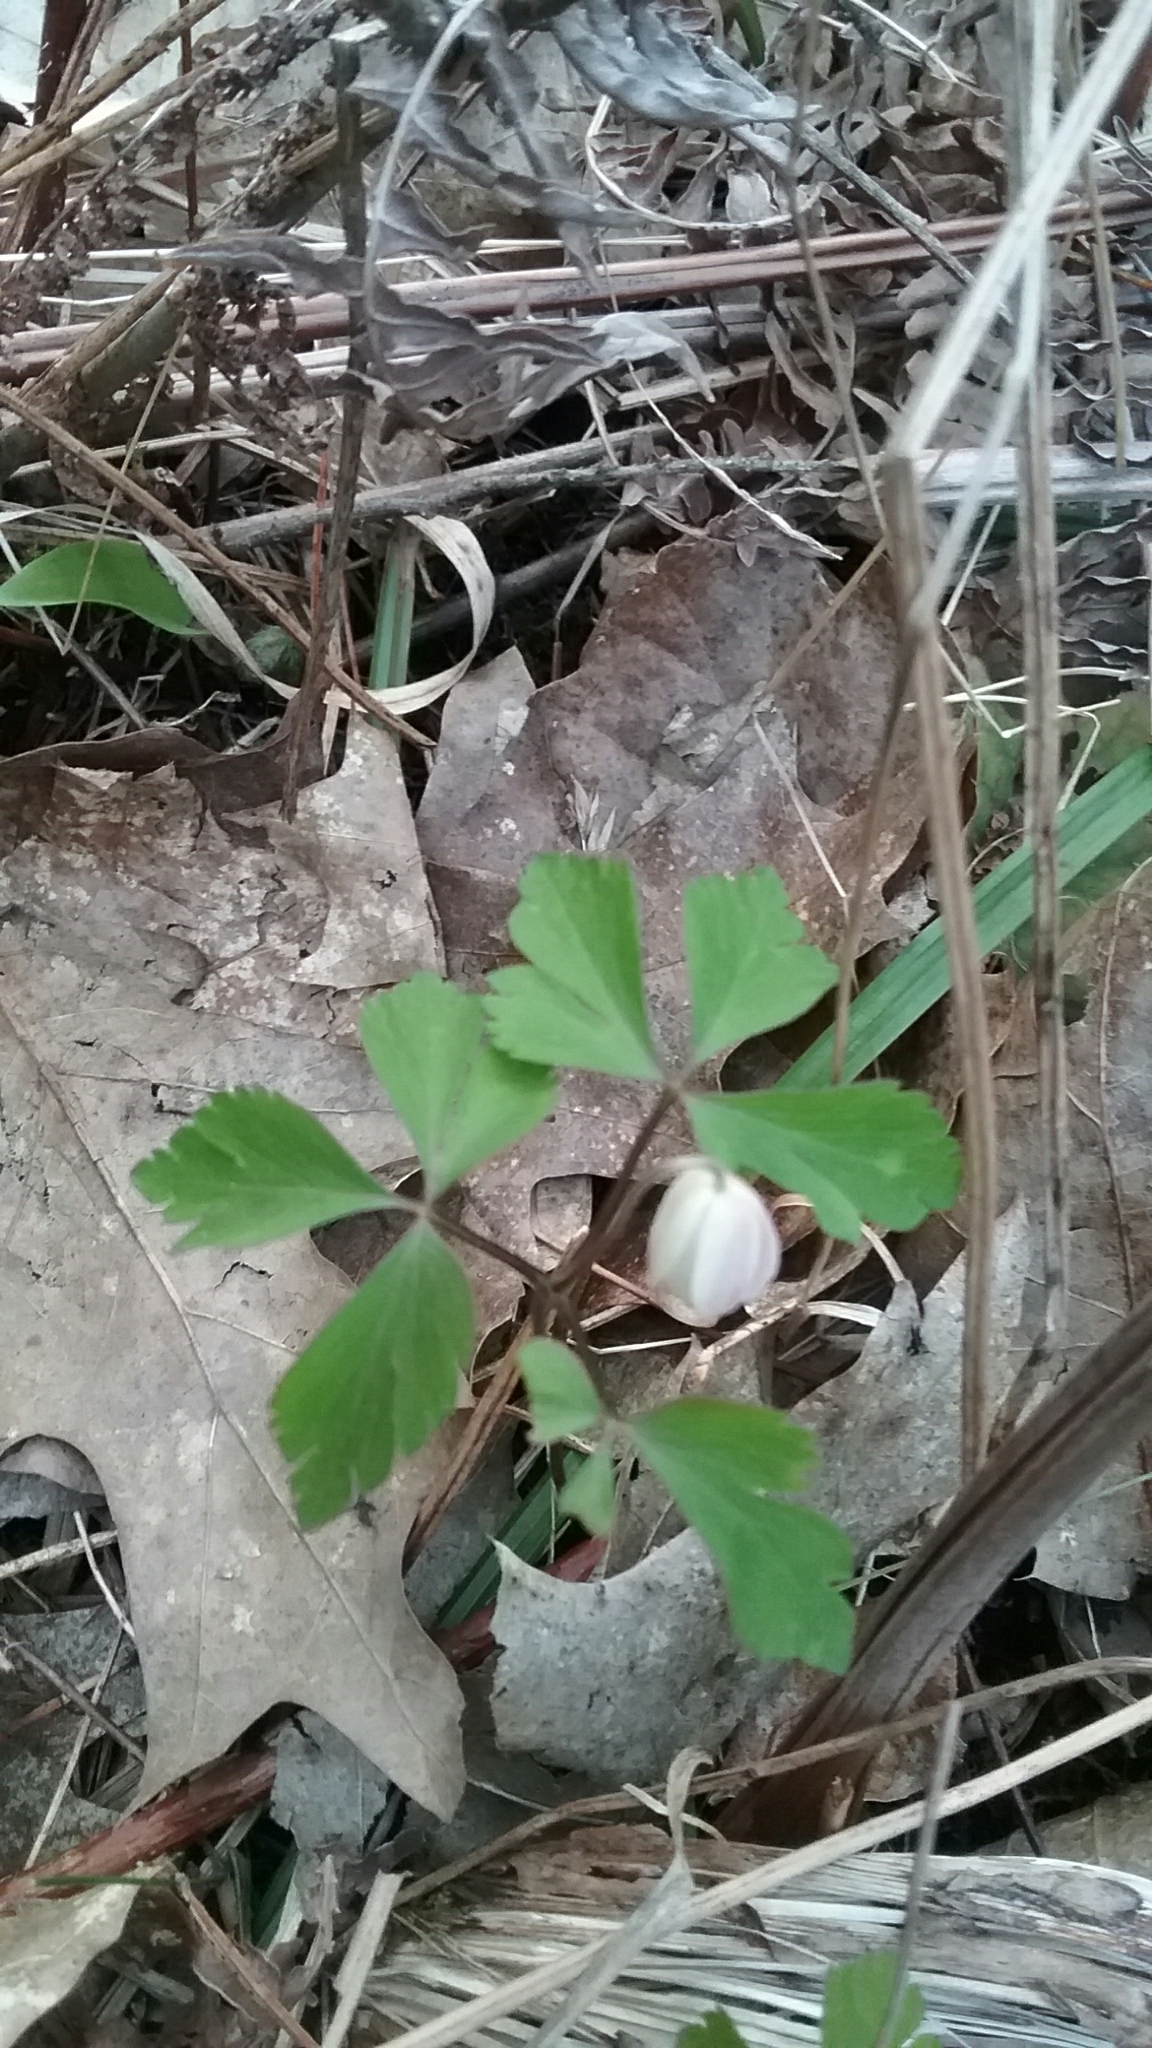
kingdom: Plantae
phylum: Tracheophyta
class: Magnoliopsida
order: Ranunculales
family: Ranunculaceae
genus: Anemone
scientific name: Anemone quinquefolia
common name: Wood anemone
